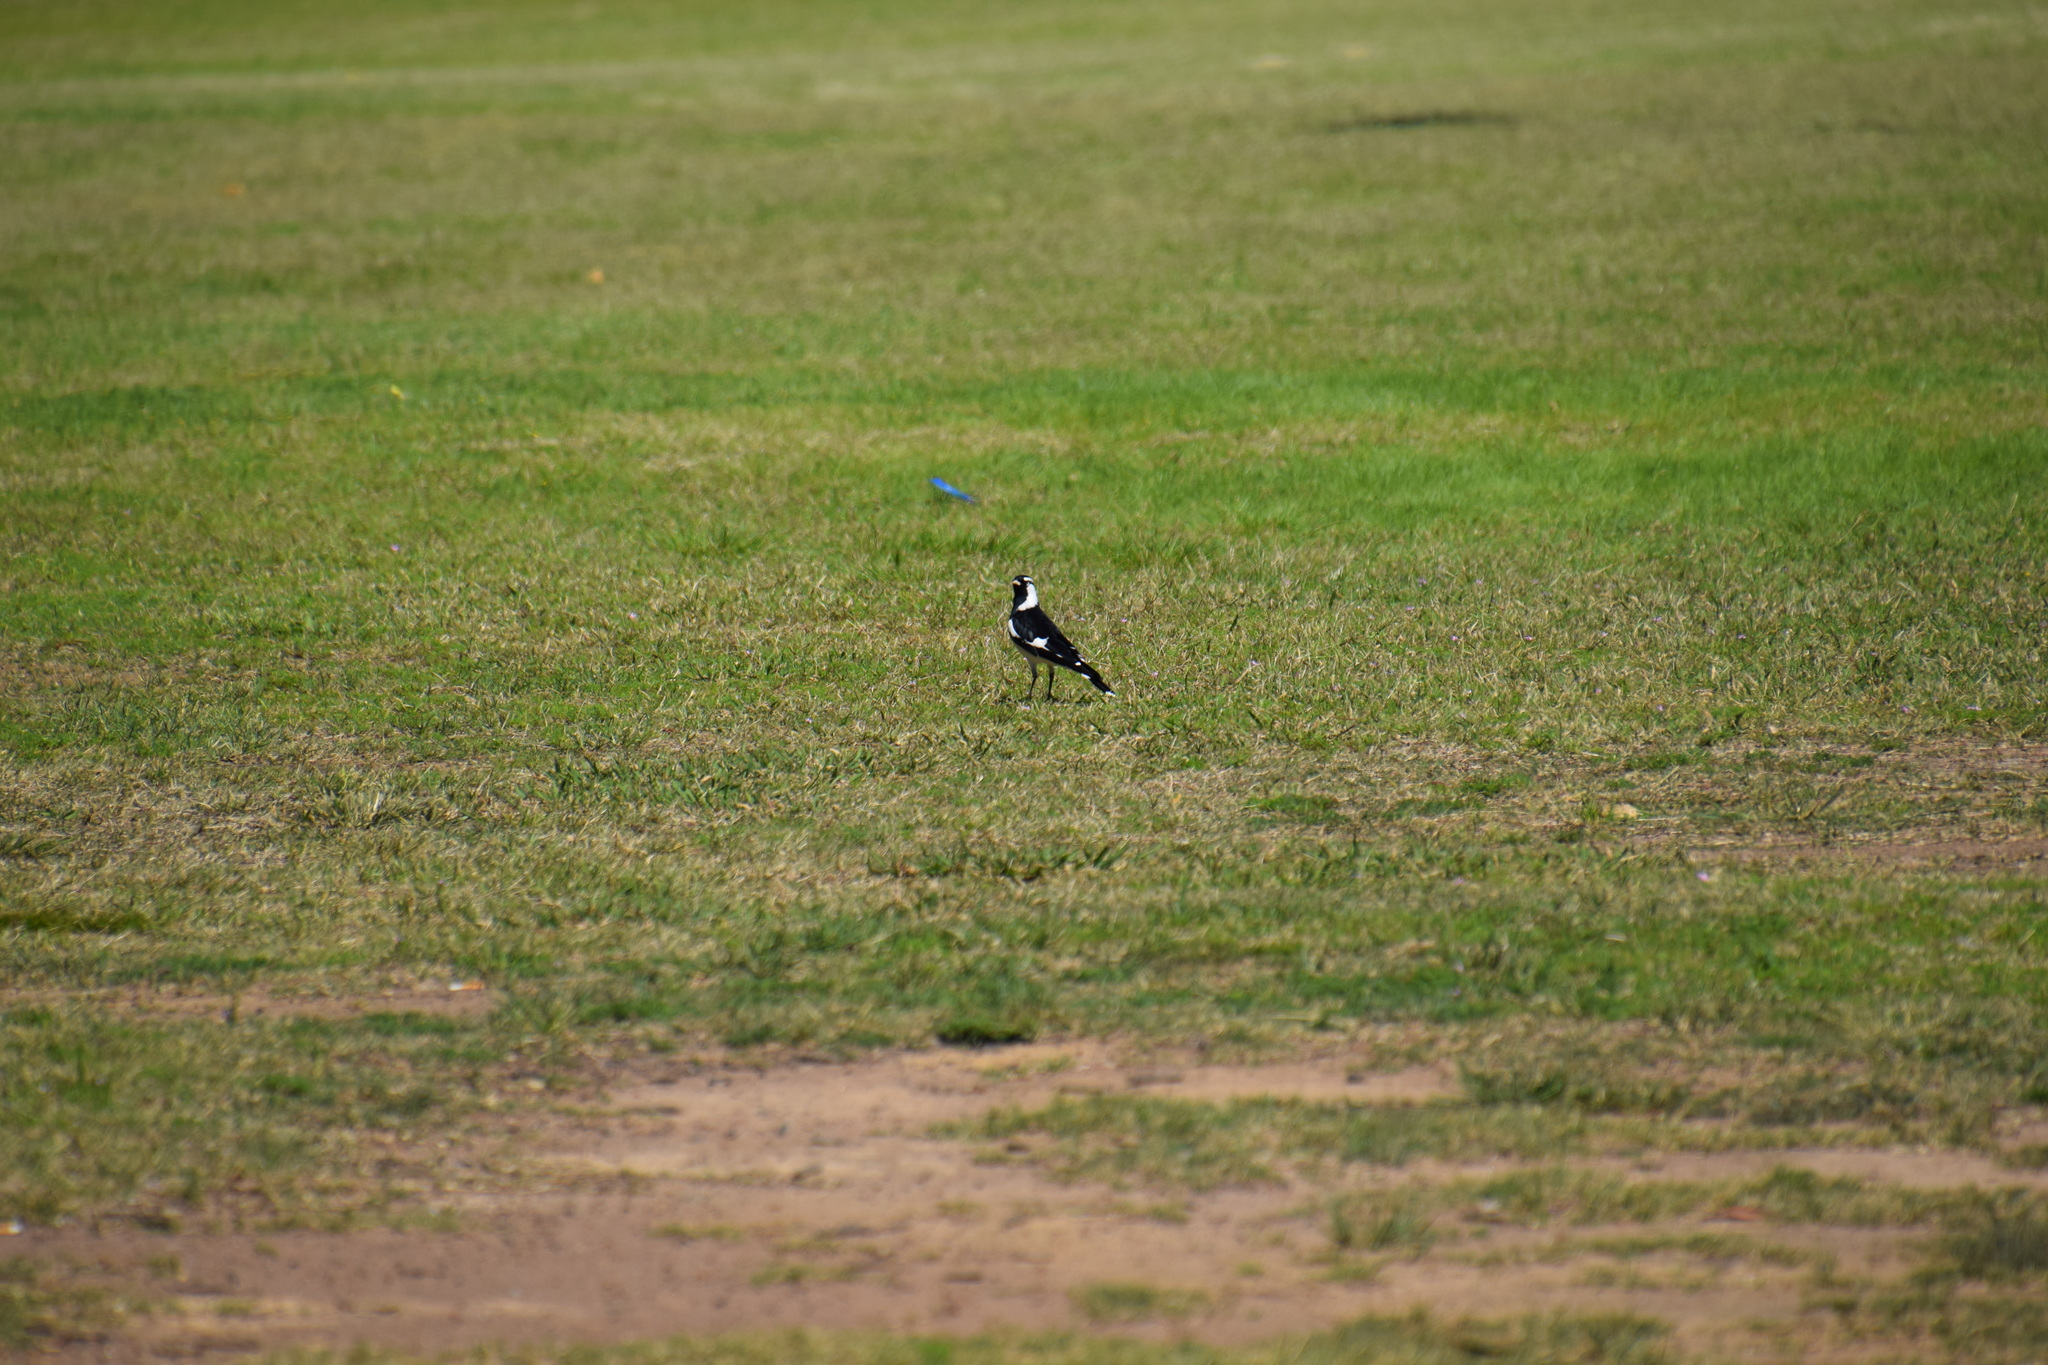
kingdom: Animalia
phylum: Chordata
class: Aves
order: Passeriformes
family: Monarchidae
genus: Grallina
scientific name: Grallina cyanoleuca
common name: Magpie-lark
